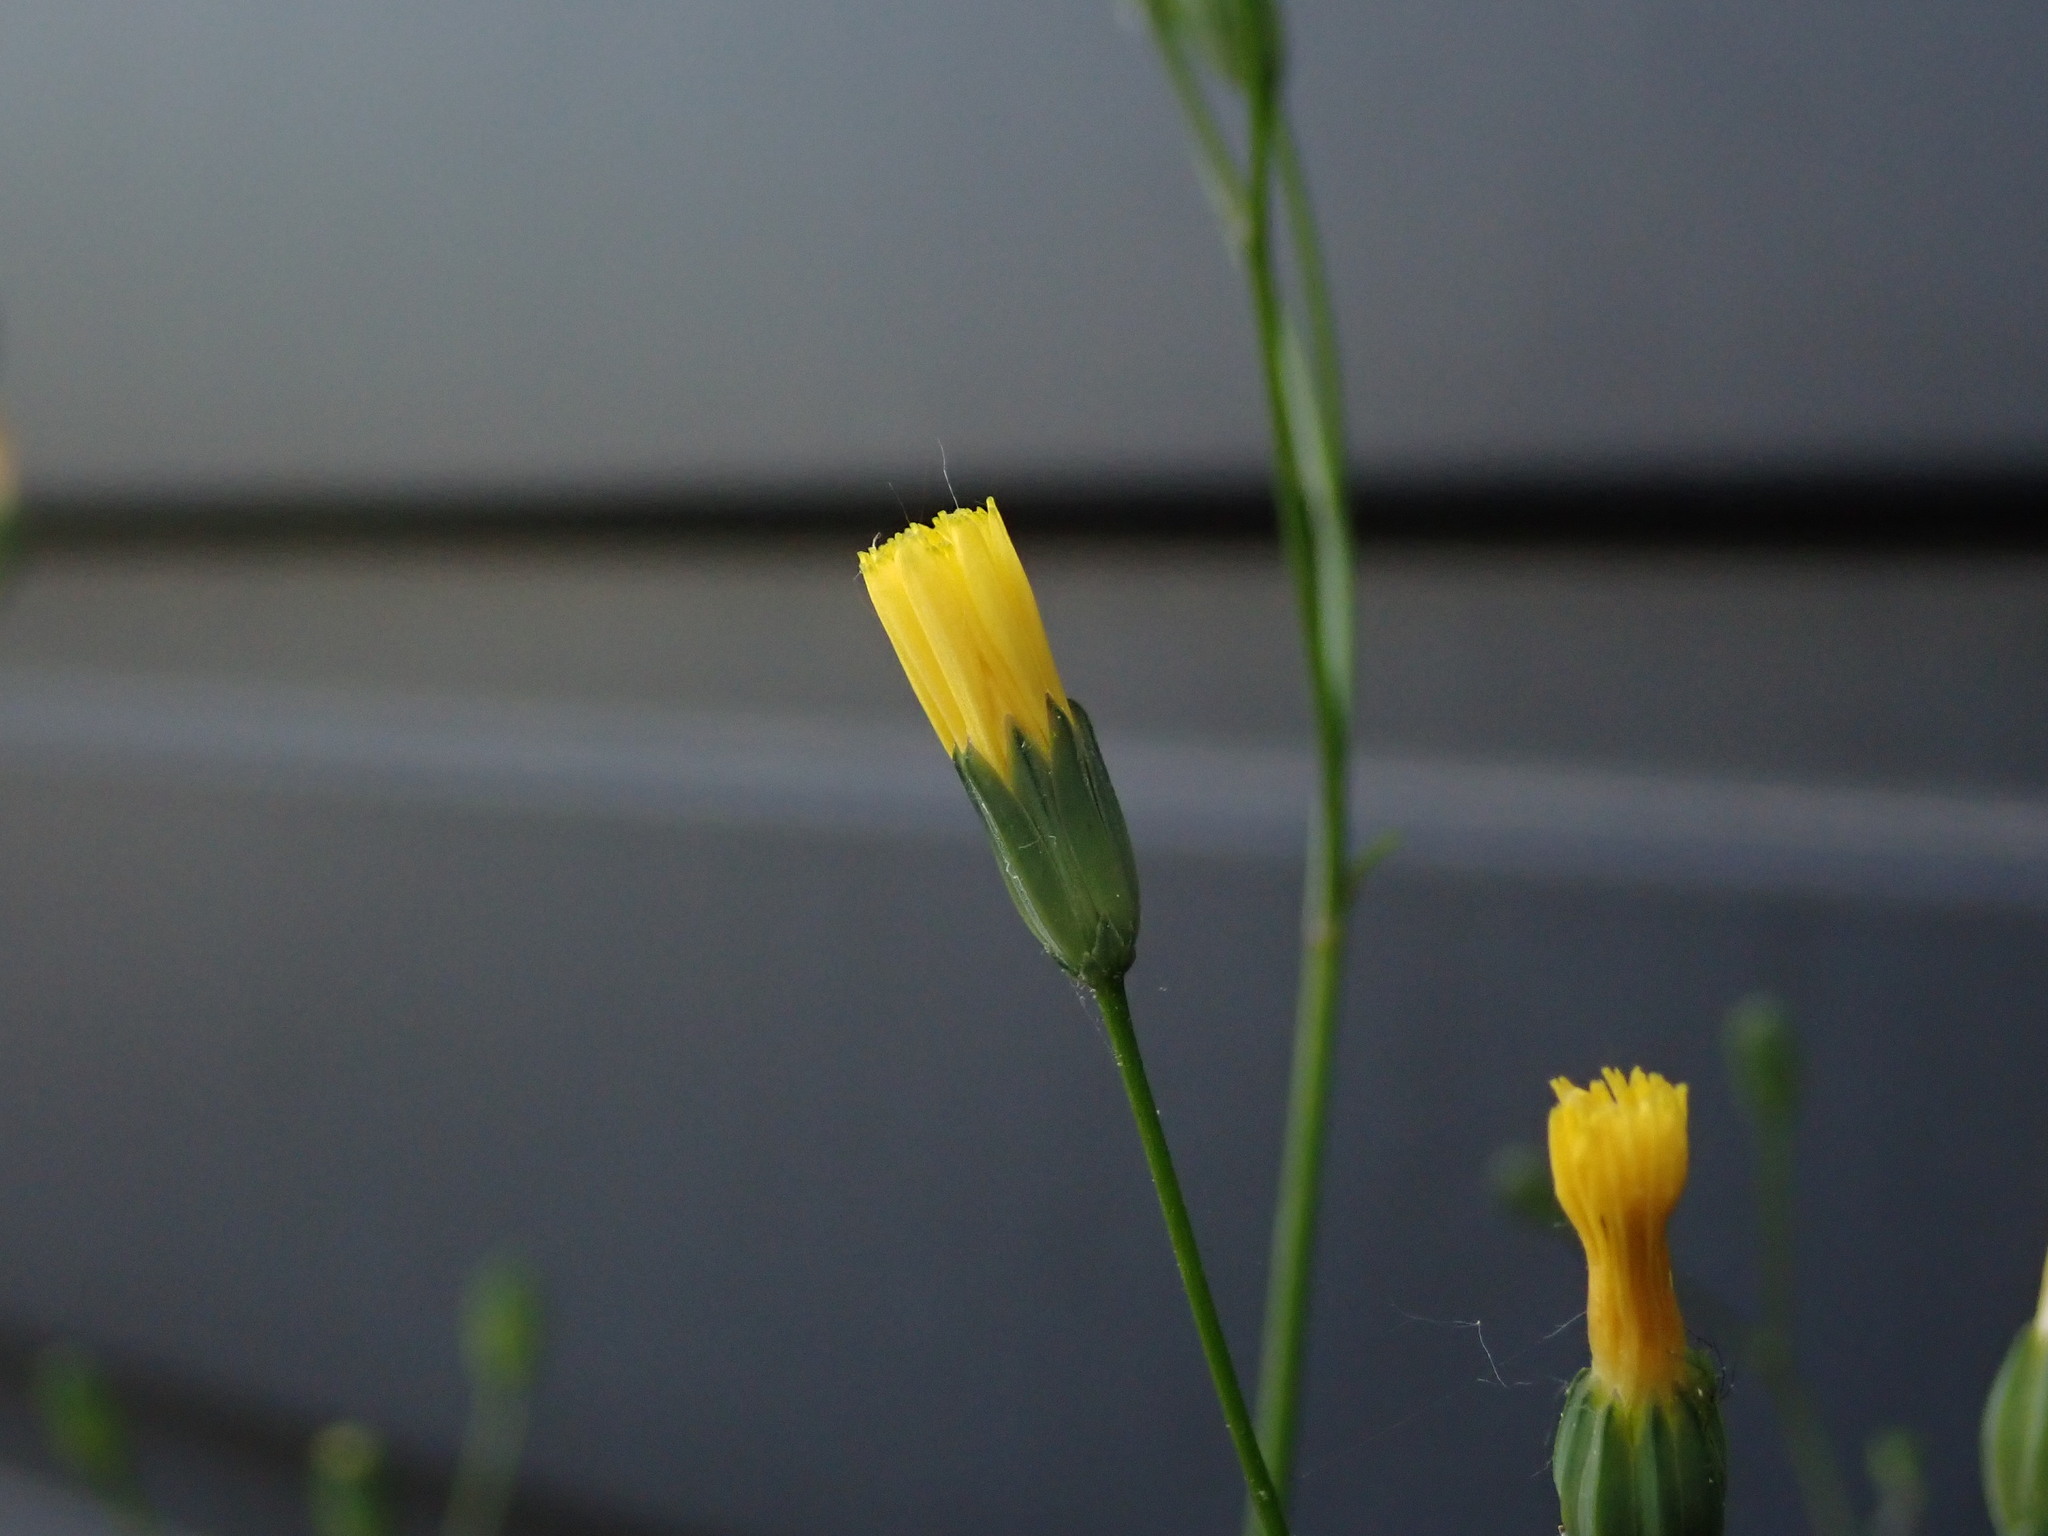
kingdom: Plantae
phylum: Tracheophyta
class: Magnoliopsida
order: Asterales
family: Asteraceae
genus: Lapsana
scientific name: Lapsana communis
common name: Nipplewort
